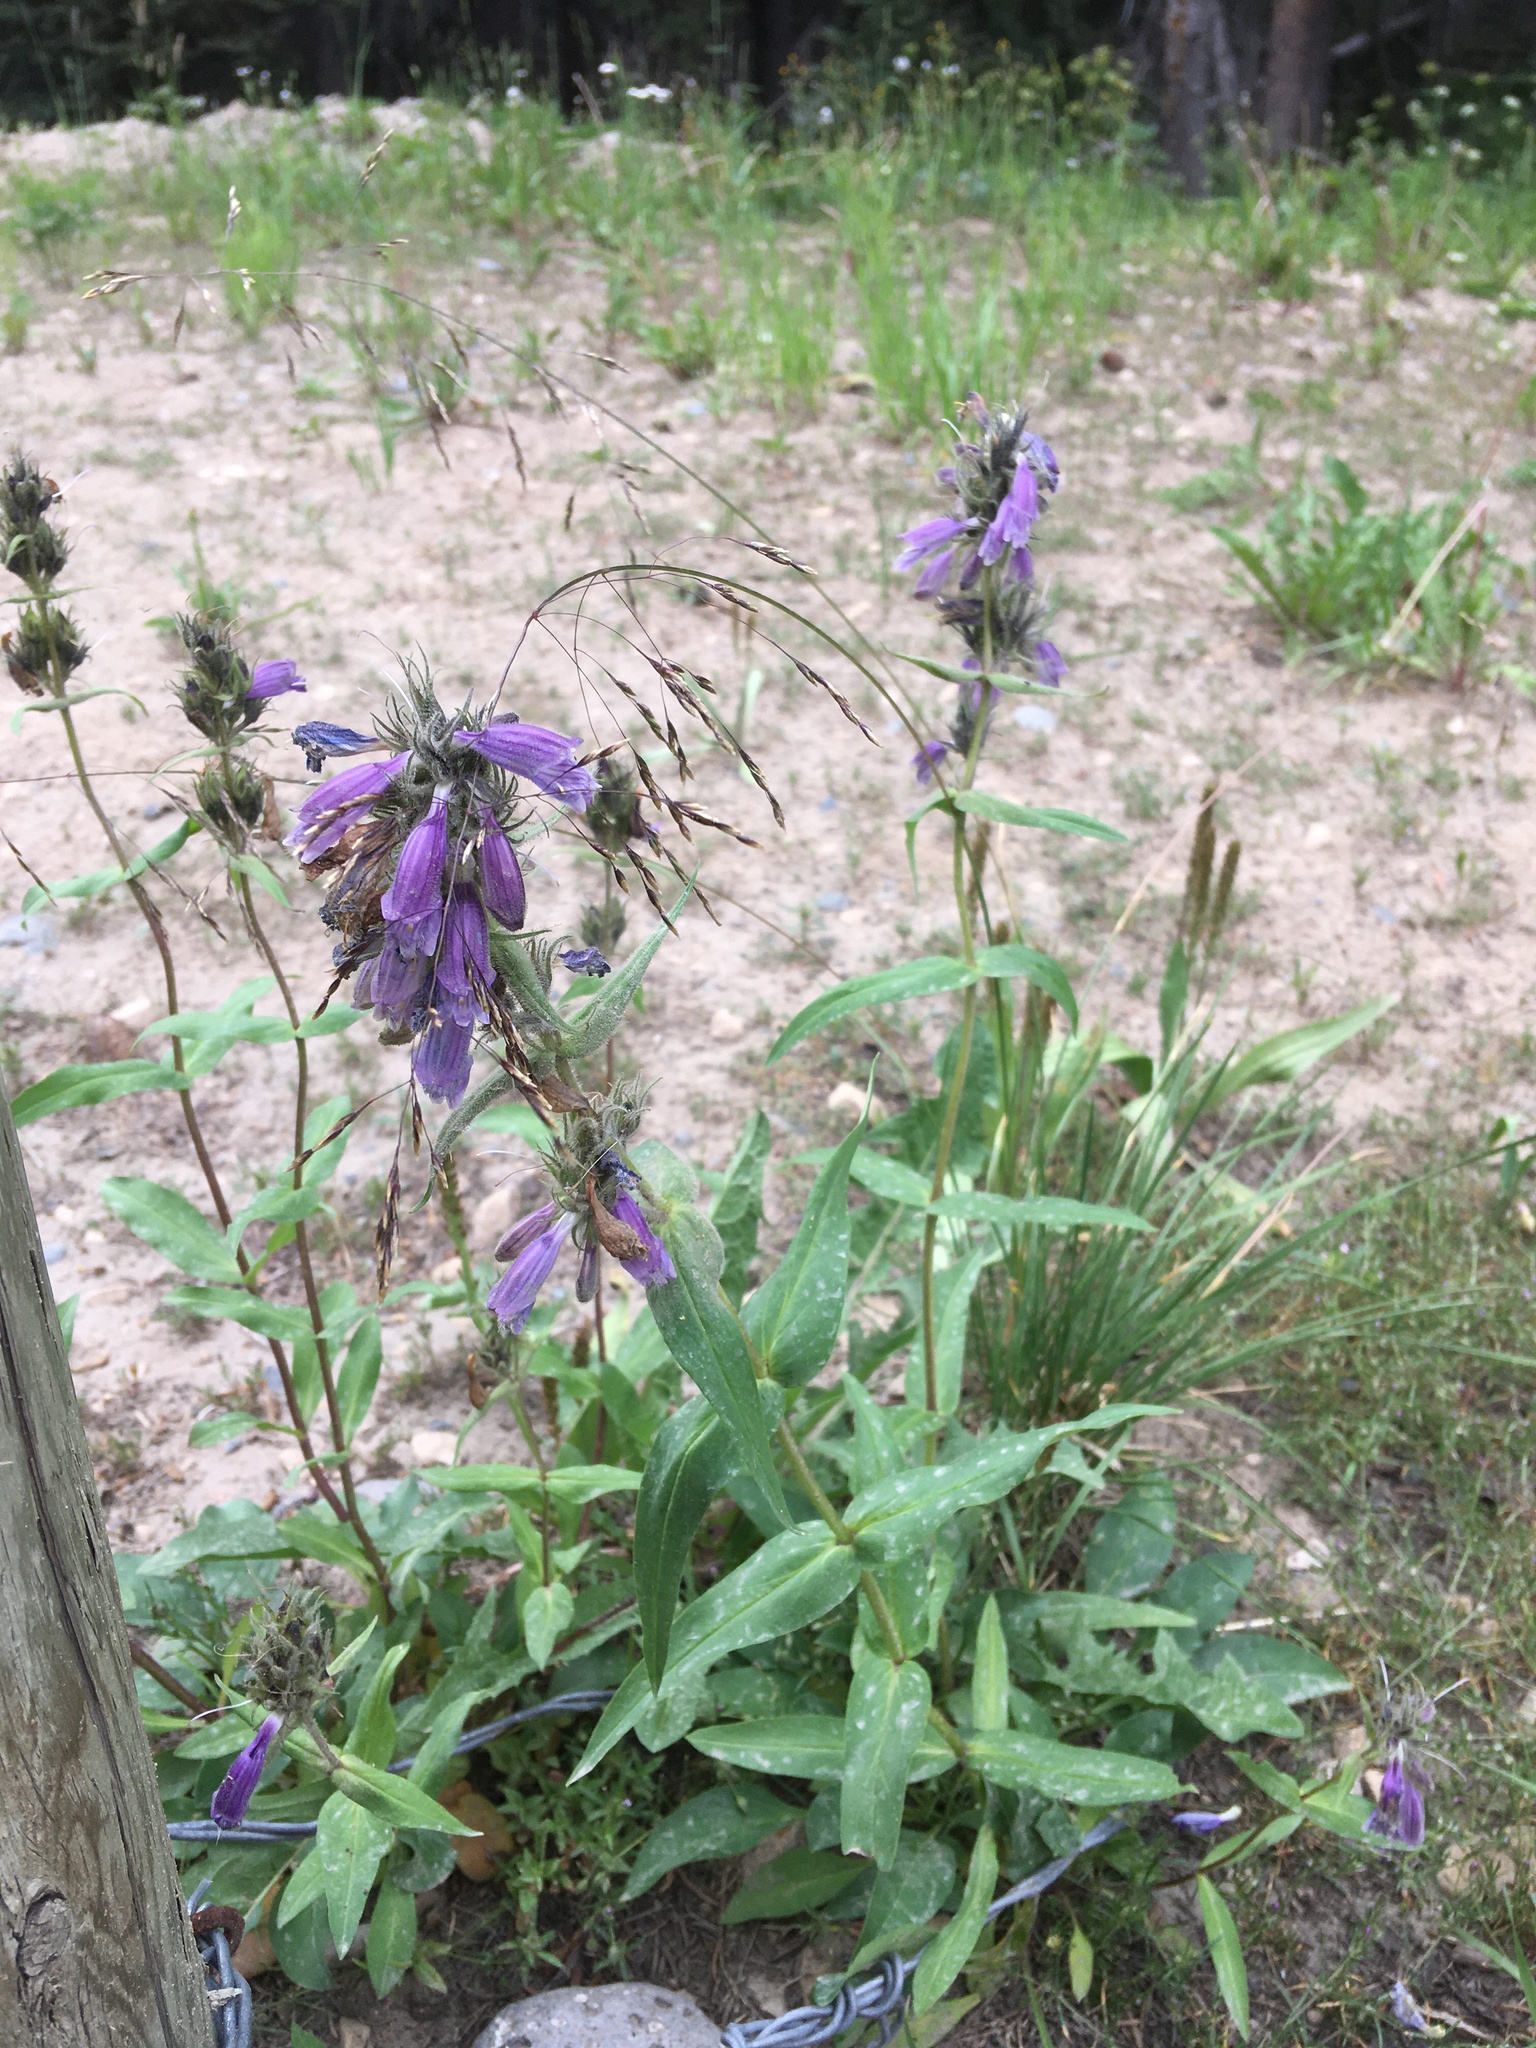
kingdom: Plantae
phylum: Tracheophyta
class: Magnoliopsida
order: Lamiales
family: Plantaginaceae
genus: Penstemon
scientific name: Penstemon whippleanus
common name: Whipple's penstemon
